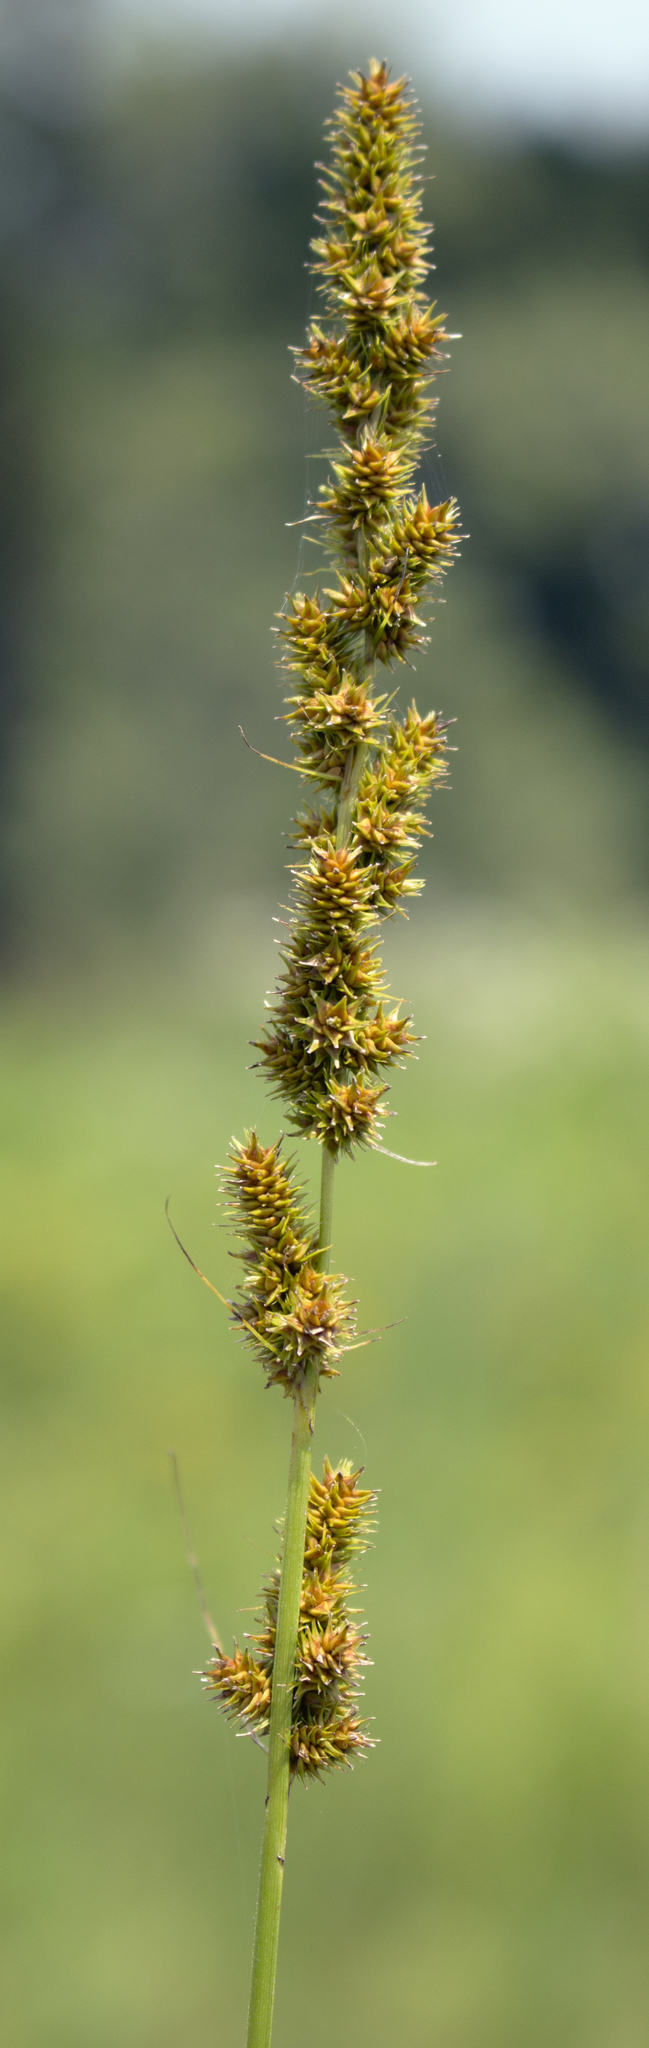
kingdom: Plantae
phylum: Tracheophyta
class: Liliopsida
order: Poales
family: Cyperaceae
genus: Carex
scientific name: Carex vulpinoidea
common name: American fox-sedge
